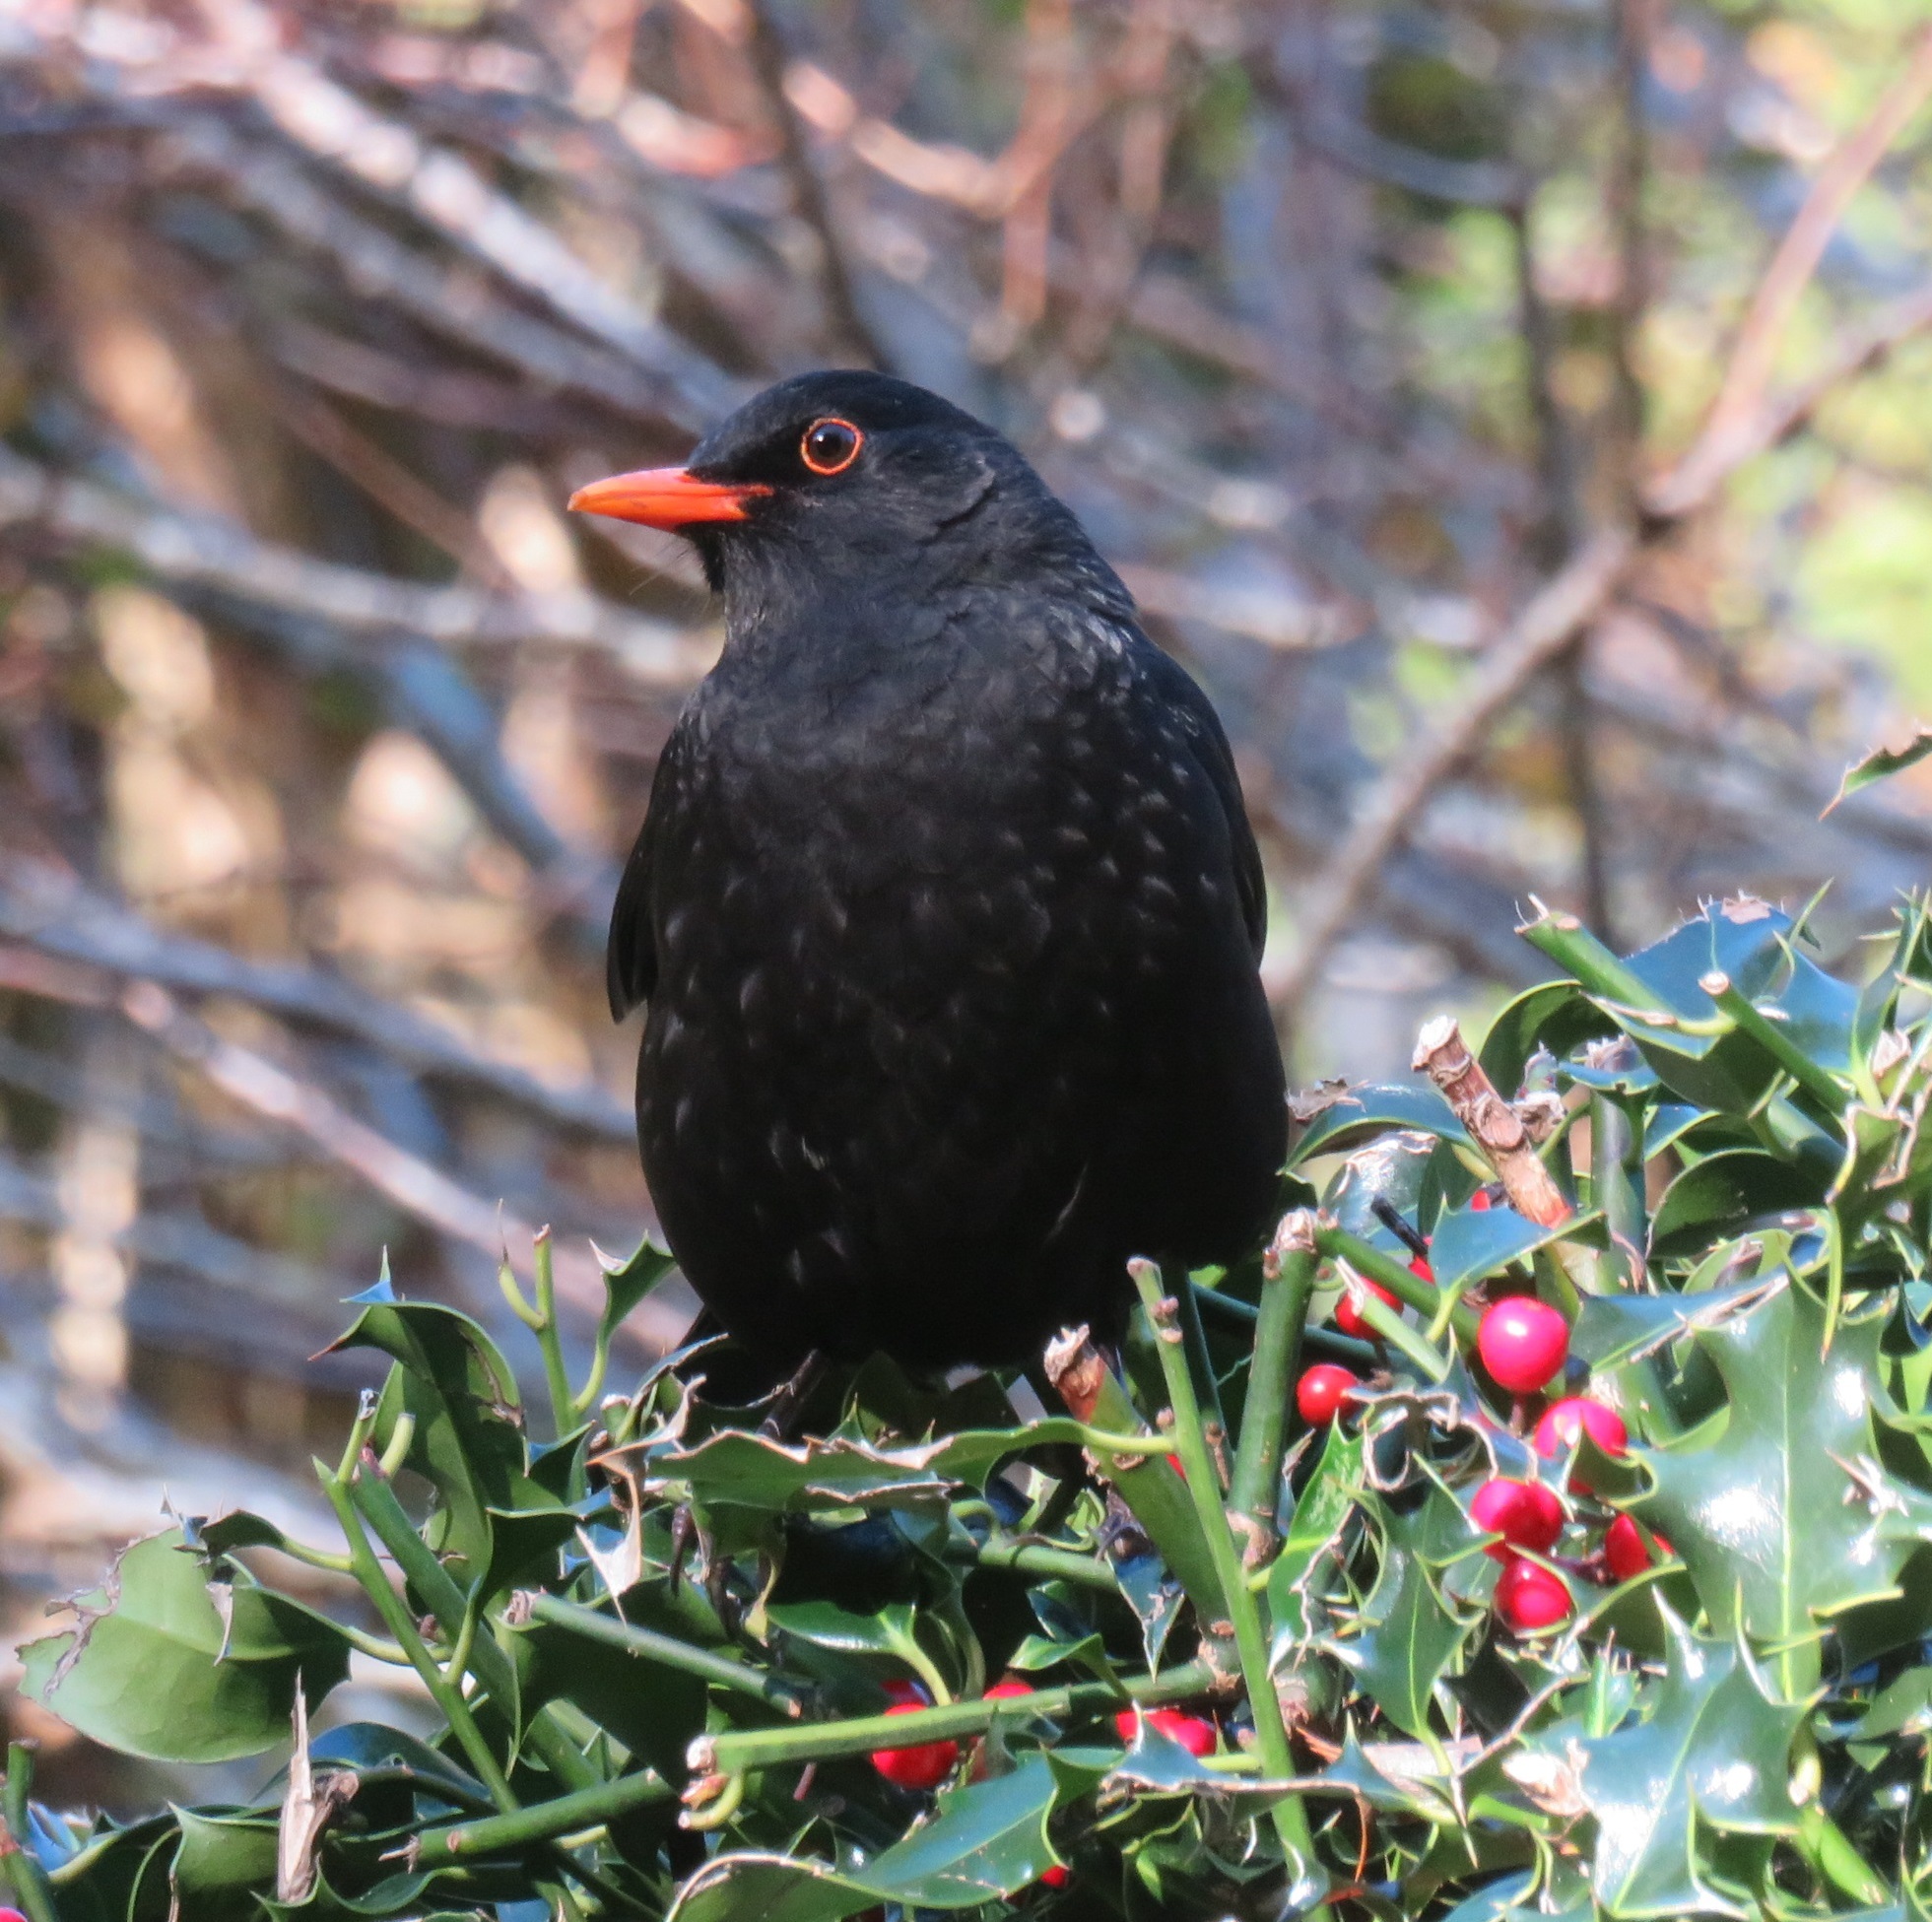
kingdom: Animalia
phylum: Chordata
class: Aves
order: Passeriformes
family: Turdidae
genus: Turdus
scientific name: Turdus merula
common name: Common blackbird
